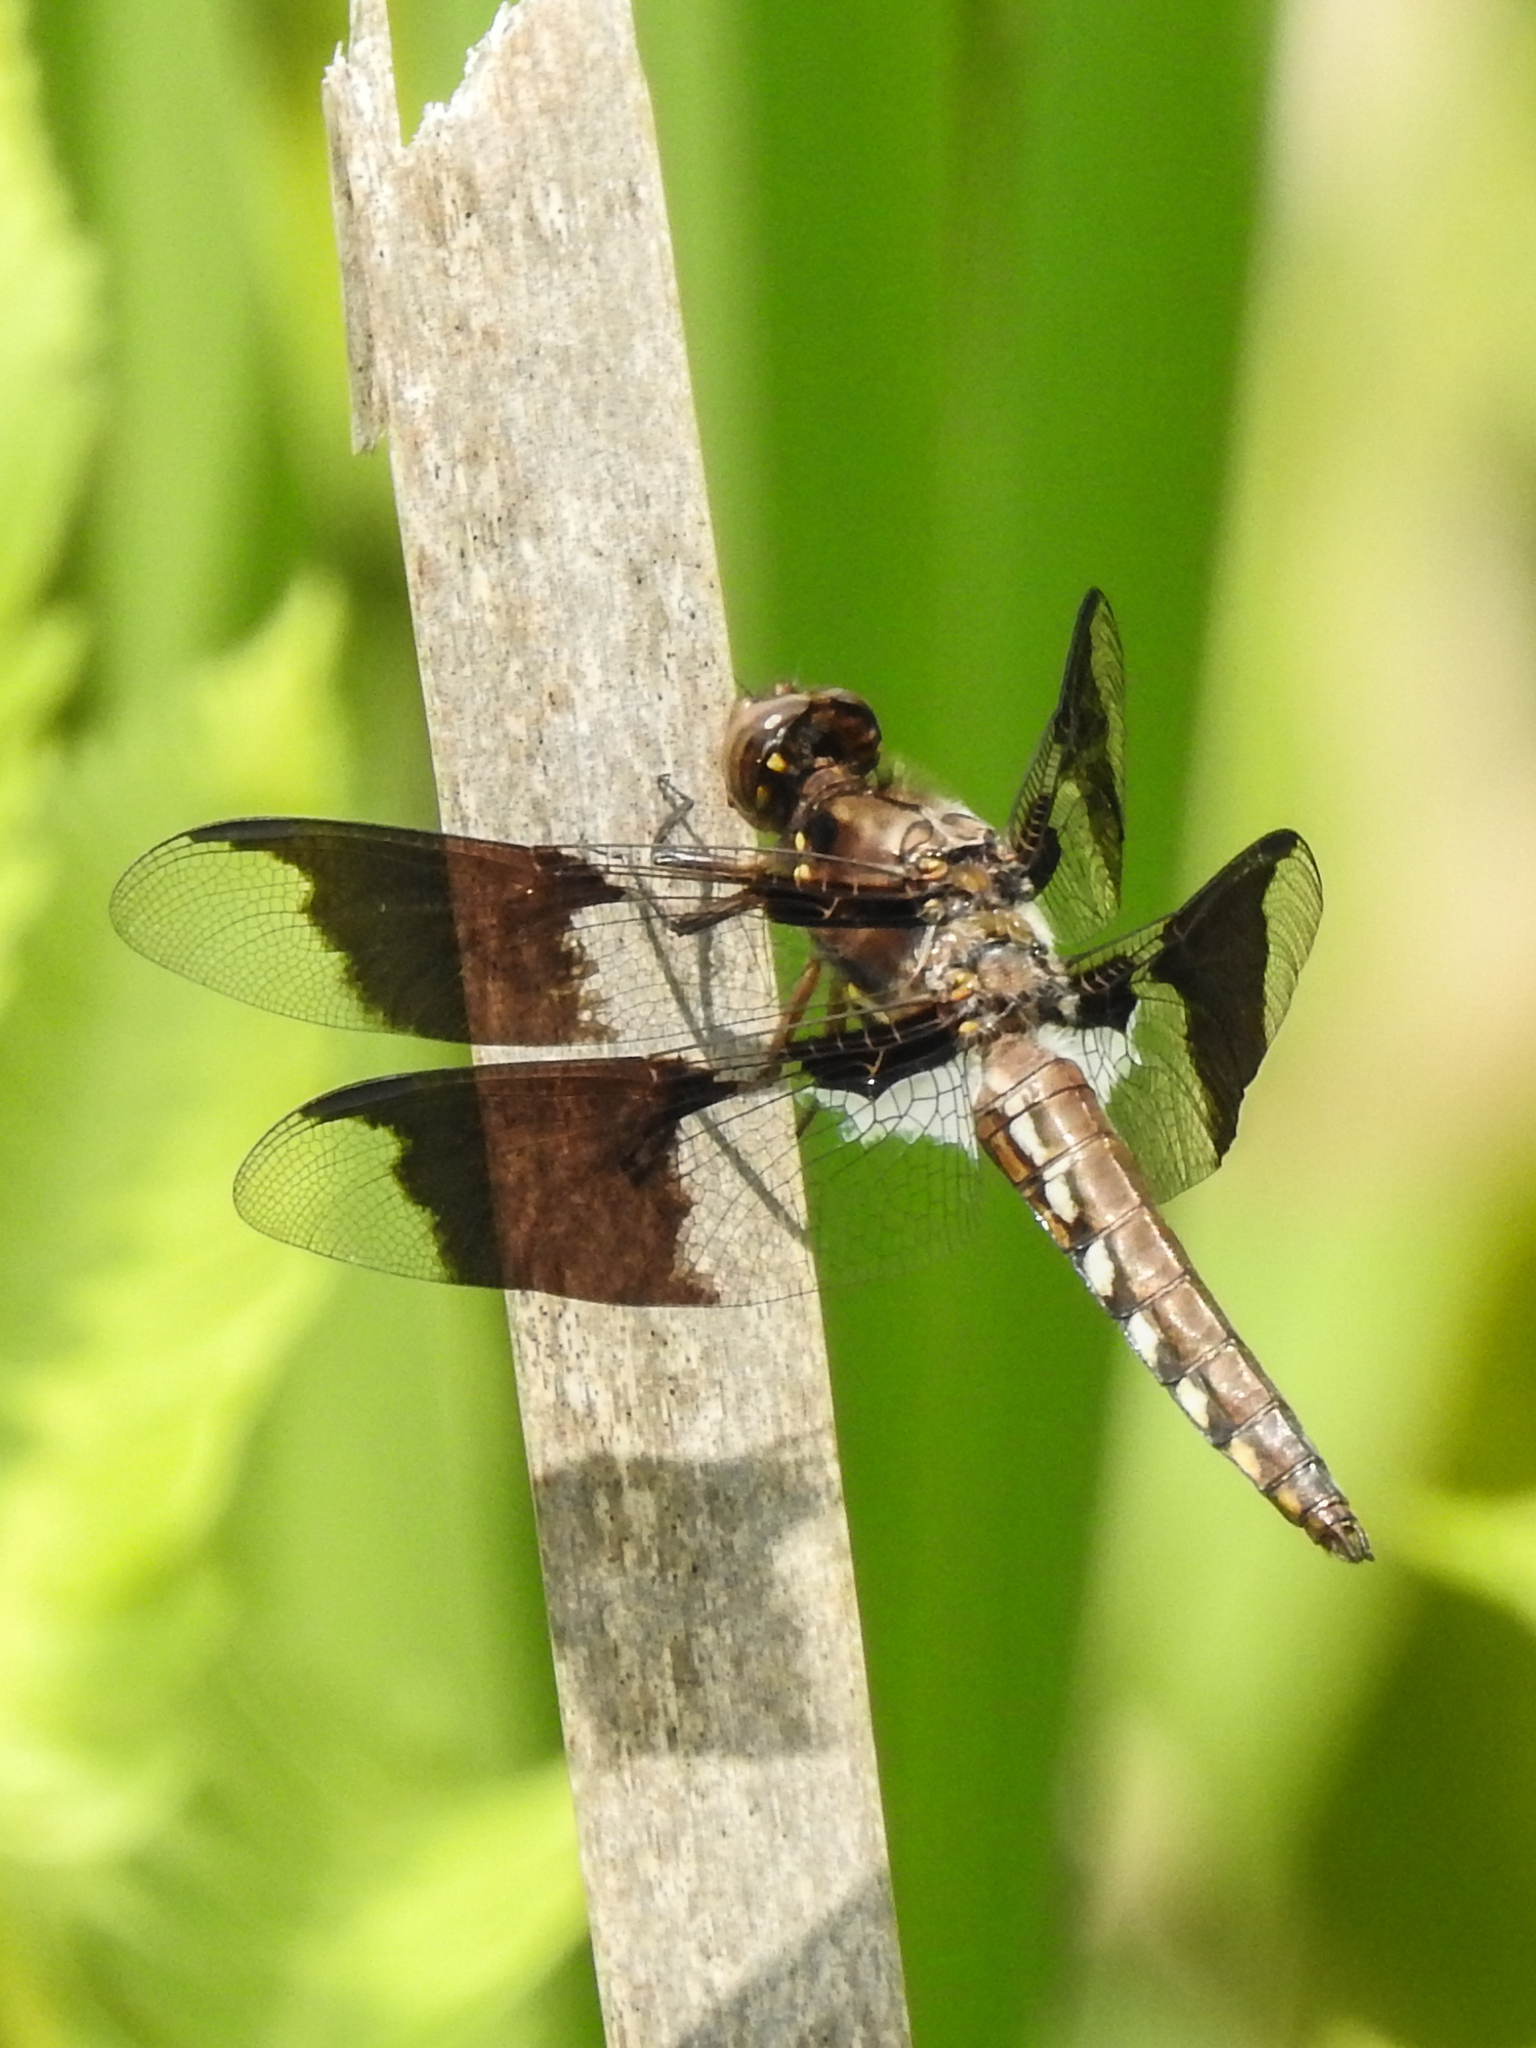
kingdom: Animalia
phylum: Arthropoda
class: Insecta
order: Odonata
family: Libellulidae
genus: Plathemis
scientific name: Plathemis lydia
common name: Common whitetail
